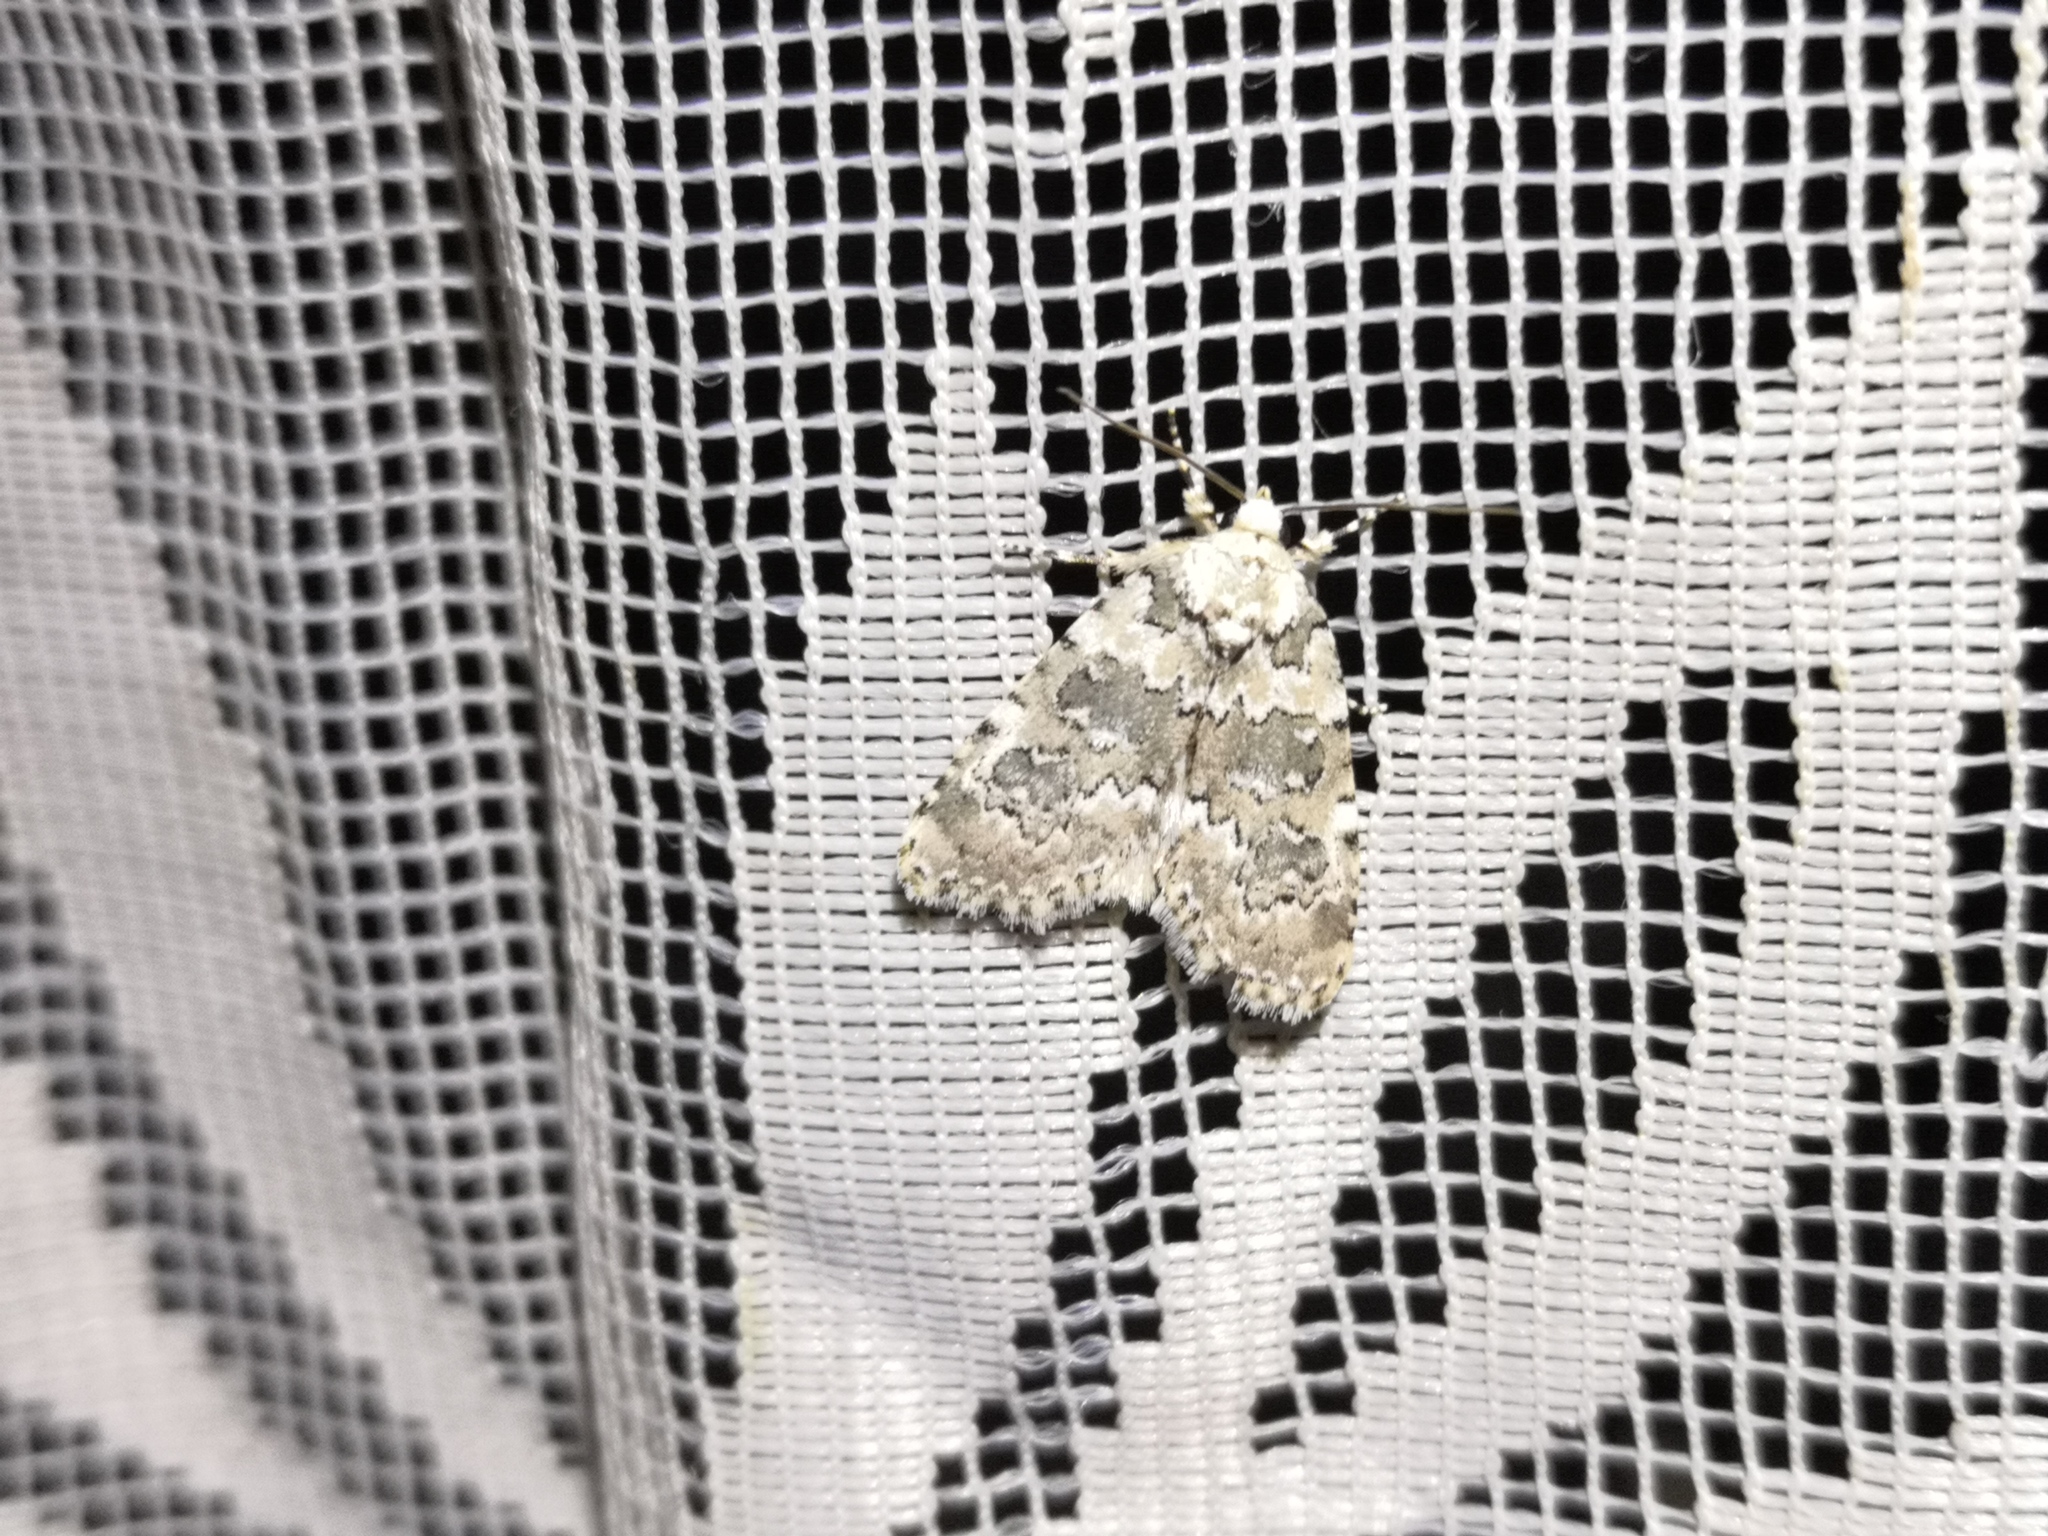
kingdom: Animalia
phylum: Arthropoda
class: Insecta
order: Lepidoptera
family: Noctuidae
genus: Bryophila
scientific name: Bryophila domestica
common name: Marbled beauty
